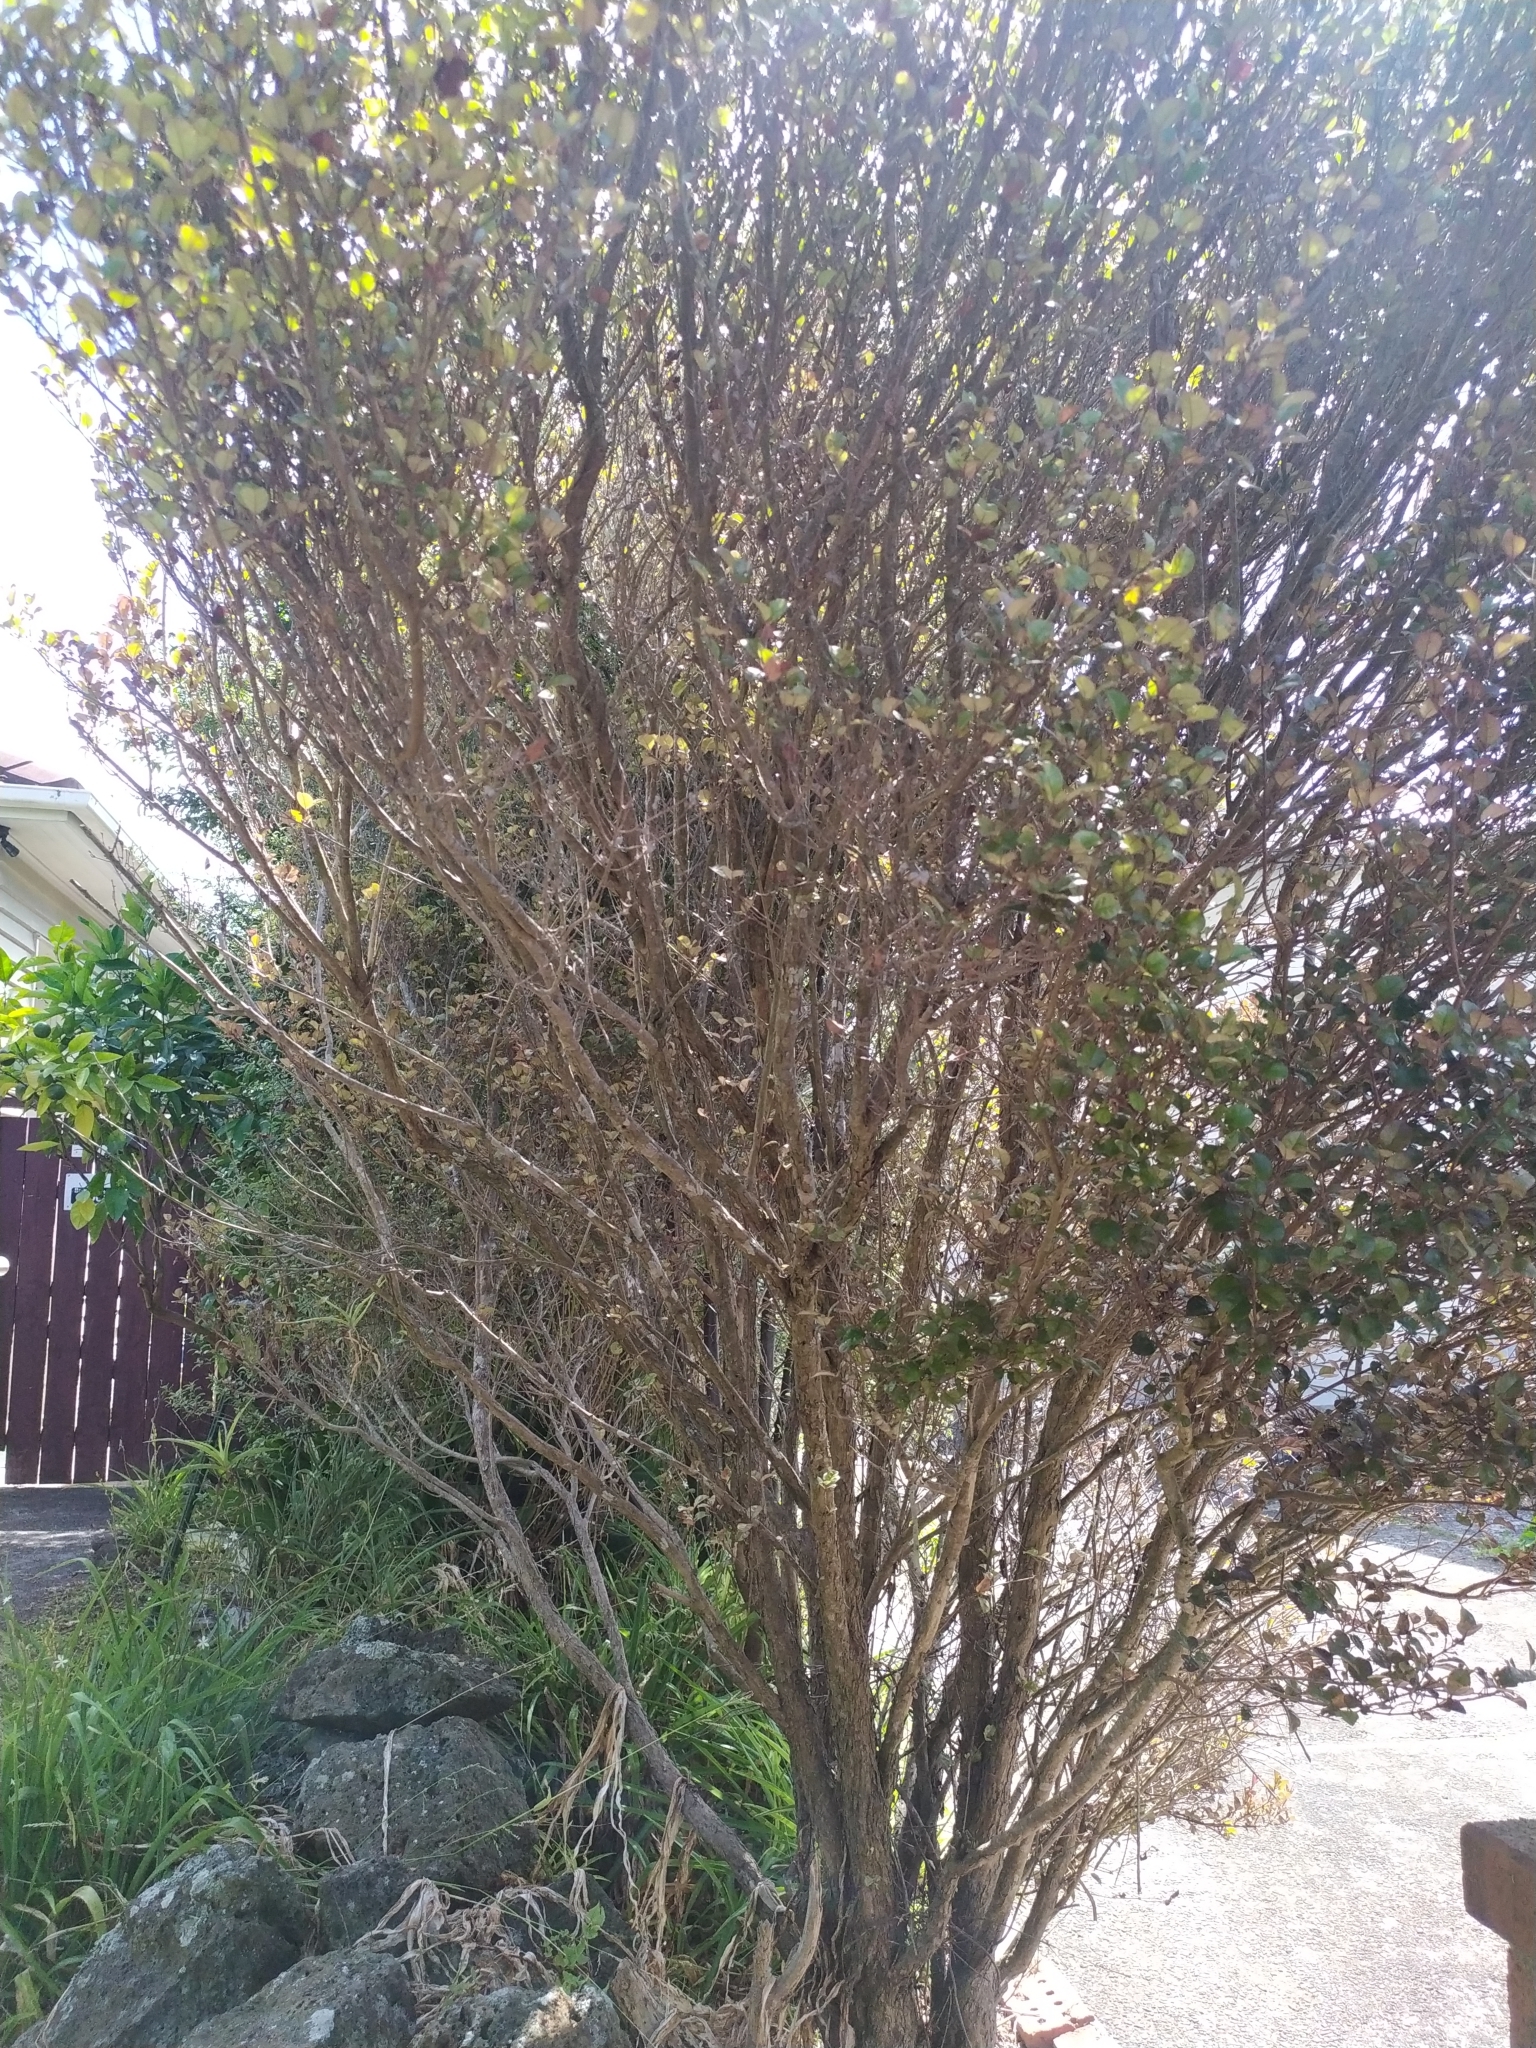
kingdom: Fungi
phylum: Basidiomycota
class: Pucciniomycetes
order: Pucciniales
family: Sphaerophragmiaceae
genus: Austropuccinia
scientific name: Austropuccinia psidii
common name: Myrtle rust
